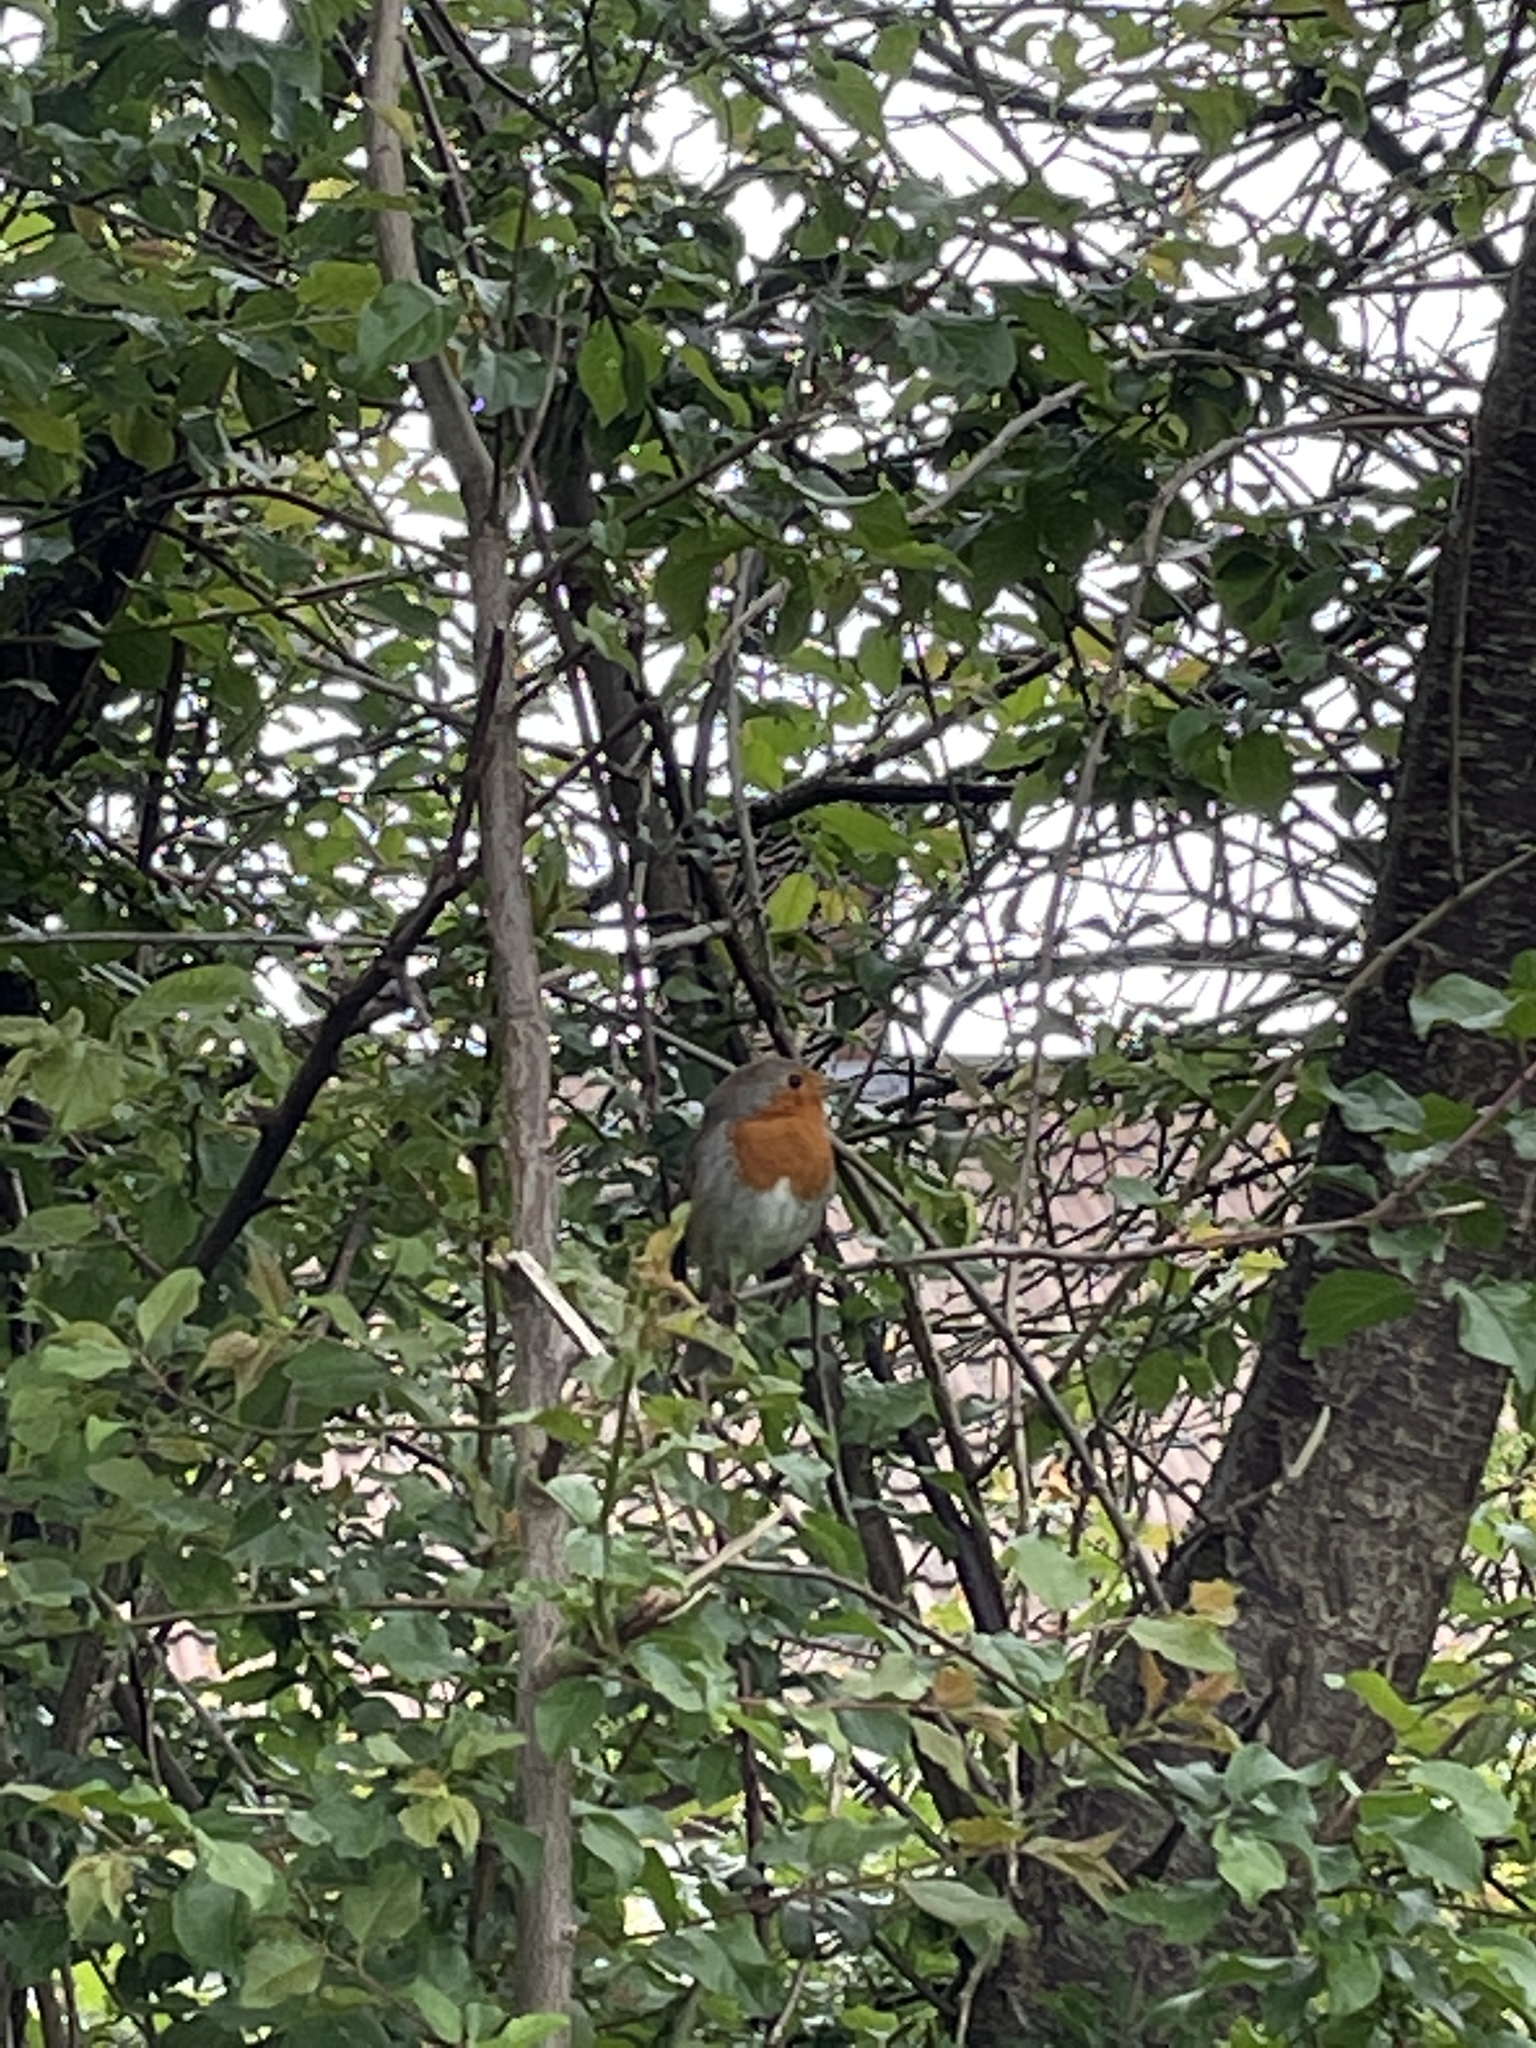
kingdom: Animalia
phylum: Chordata
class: Aves
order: Passeriformes
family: Muscicapidae
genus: Erithacus
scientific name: Erithacus rubecula
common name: European robin
